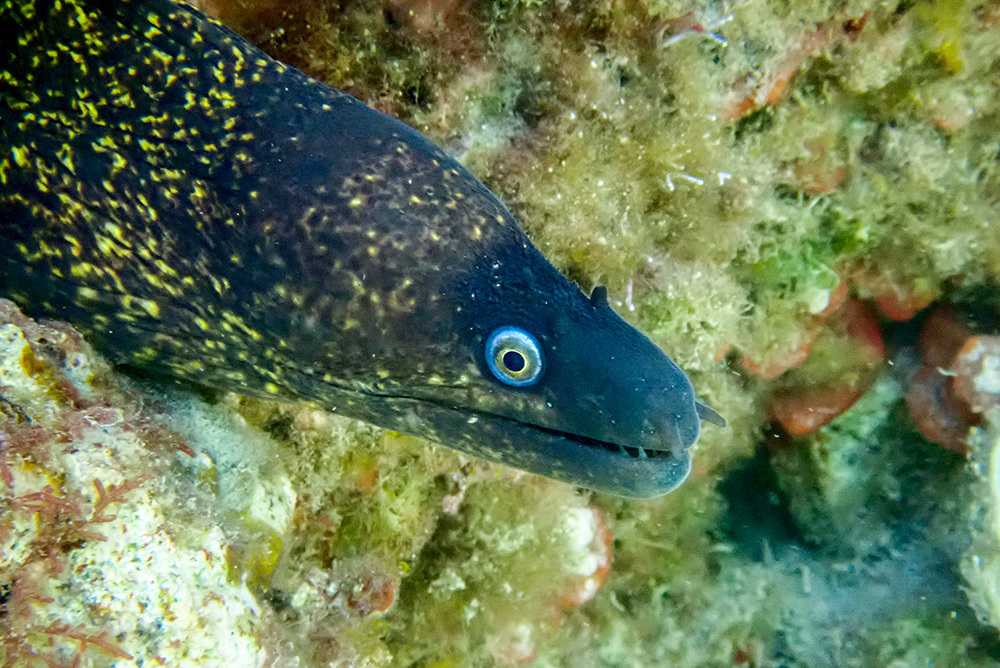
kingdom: Animalia
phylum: Chordata
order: Anguilliformes
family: Muraenidae
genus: Muraena
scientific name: Muraena helena
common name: Mediterranean moray
